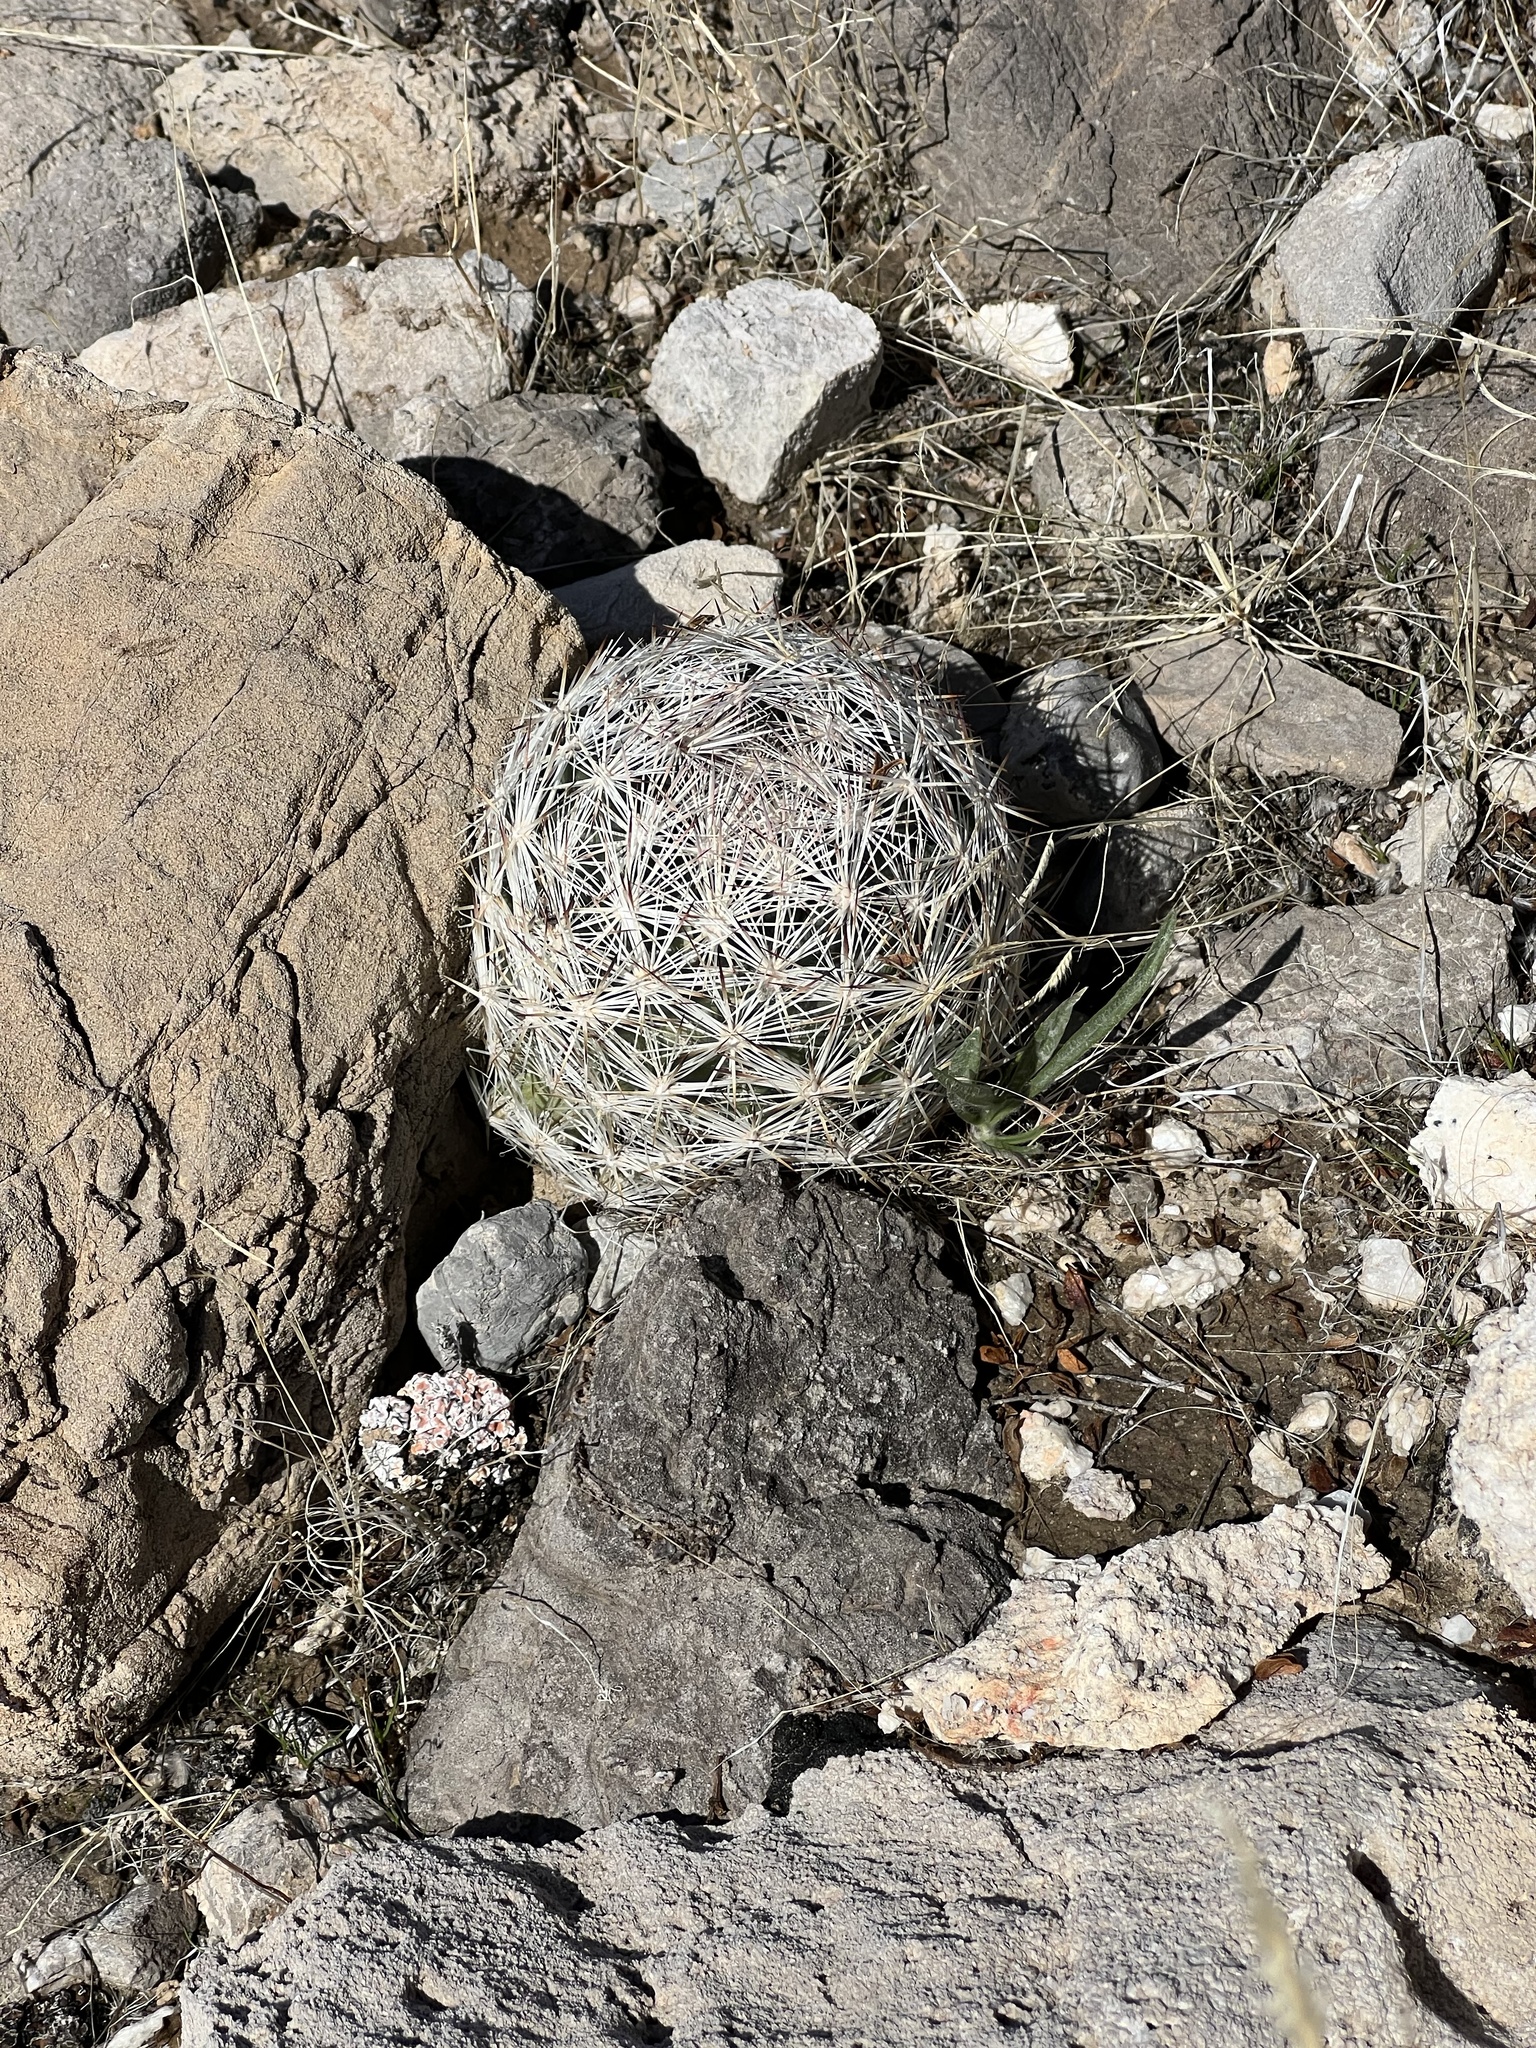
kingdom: Plantae
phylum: Tracheophyta
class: Magnoliopsida
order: Caryophyllales
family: Cactaceae
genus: Pelecyphora
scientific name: Pelecyphora dasyacantha
